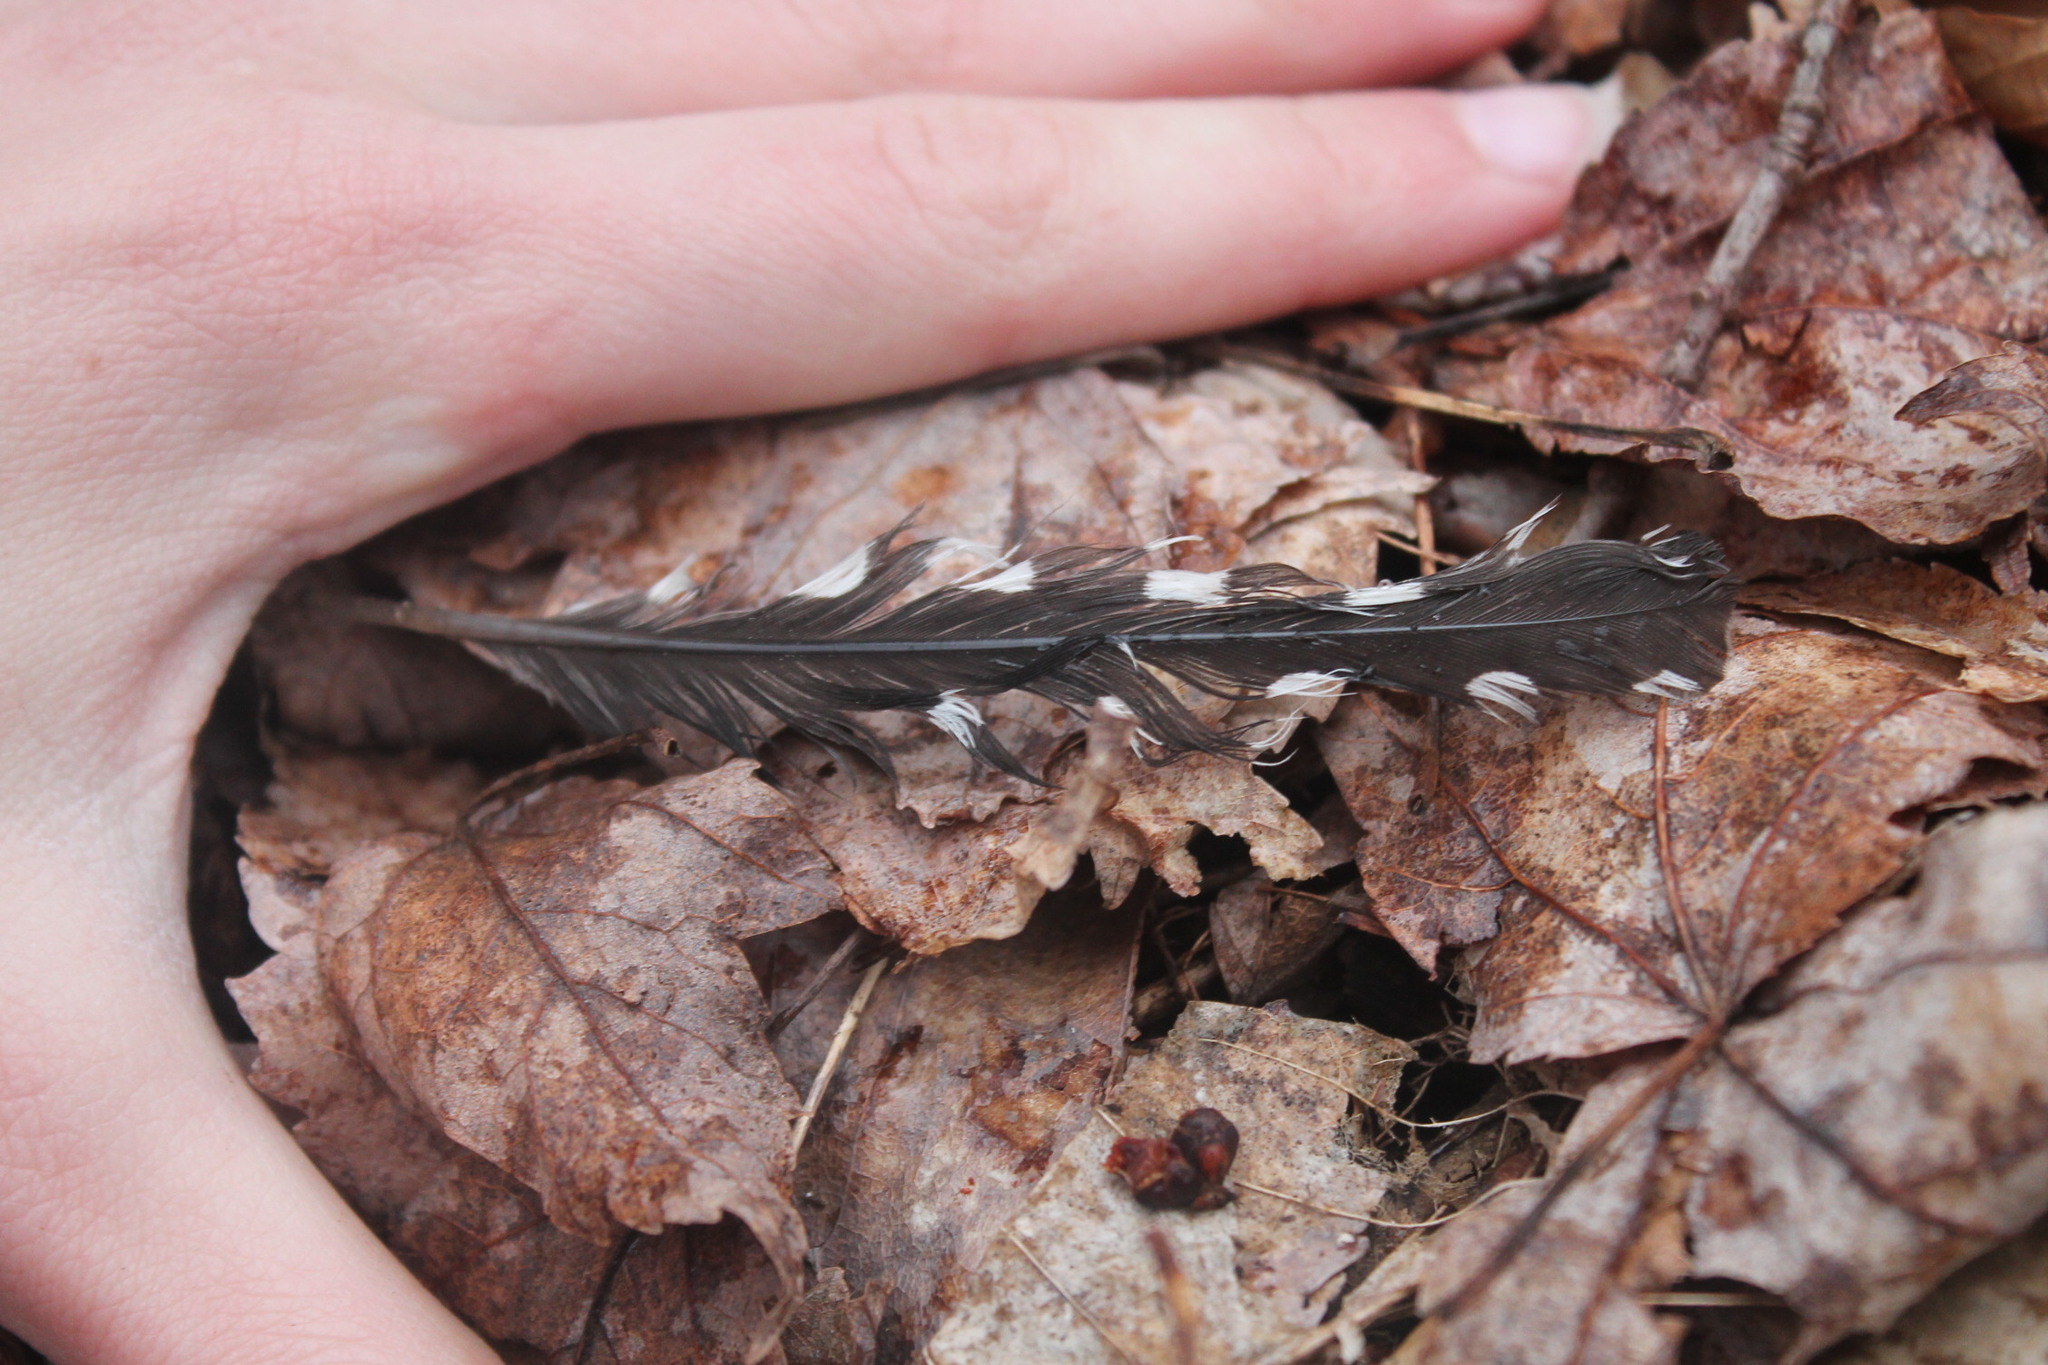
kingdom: Animalia
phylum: Chordata
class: Aves
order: Piciformes
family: Picidae
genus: Melanerpes
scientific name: Melanerpes carolinus
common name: Red-bellied woodpecker
